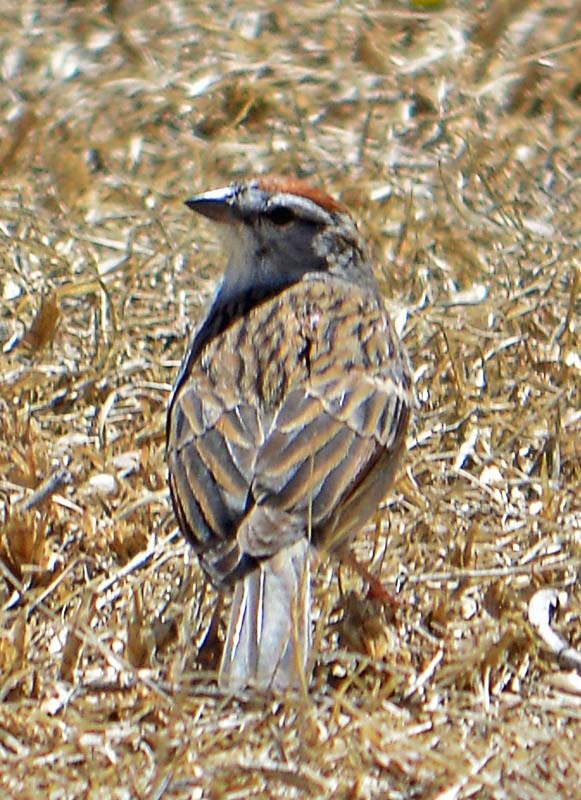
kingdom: Animalia
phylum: Chordata
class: Aves
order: Passeriformes
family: Passerellidae
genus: Spizella
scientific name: Spizella passerina
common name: Chipping sparrow
